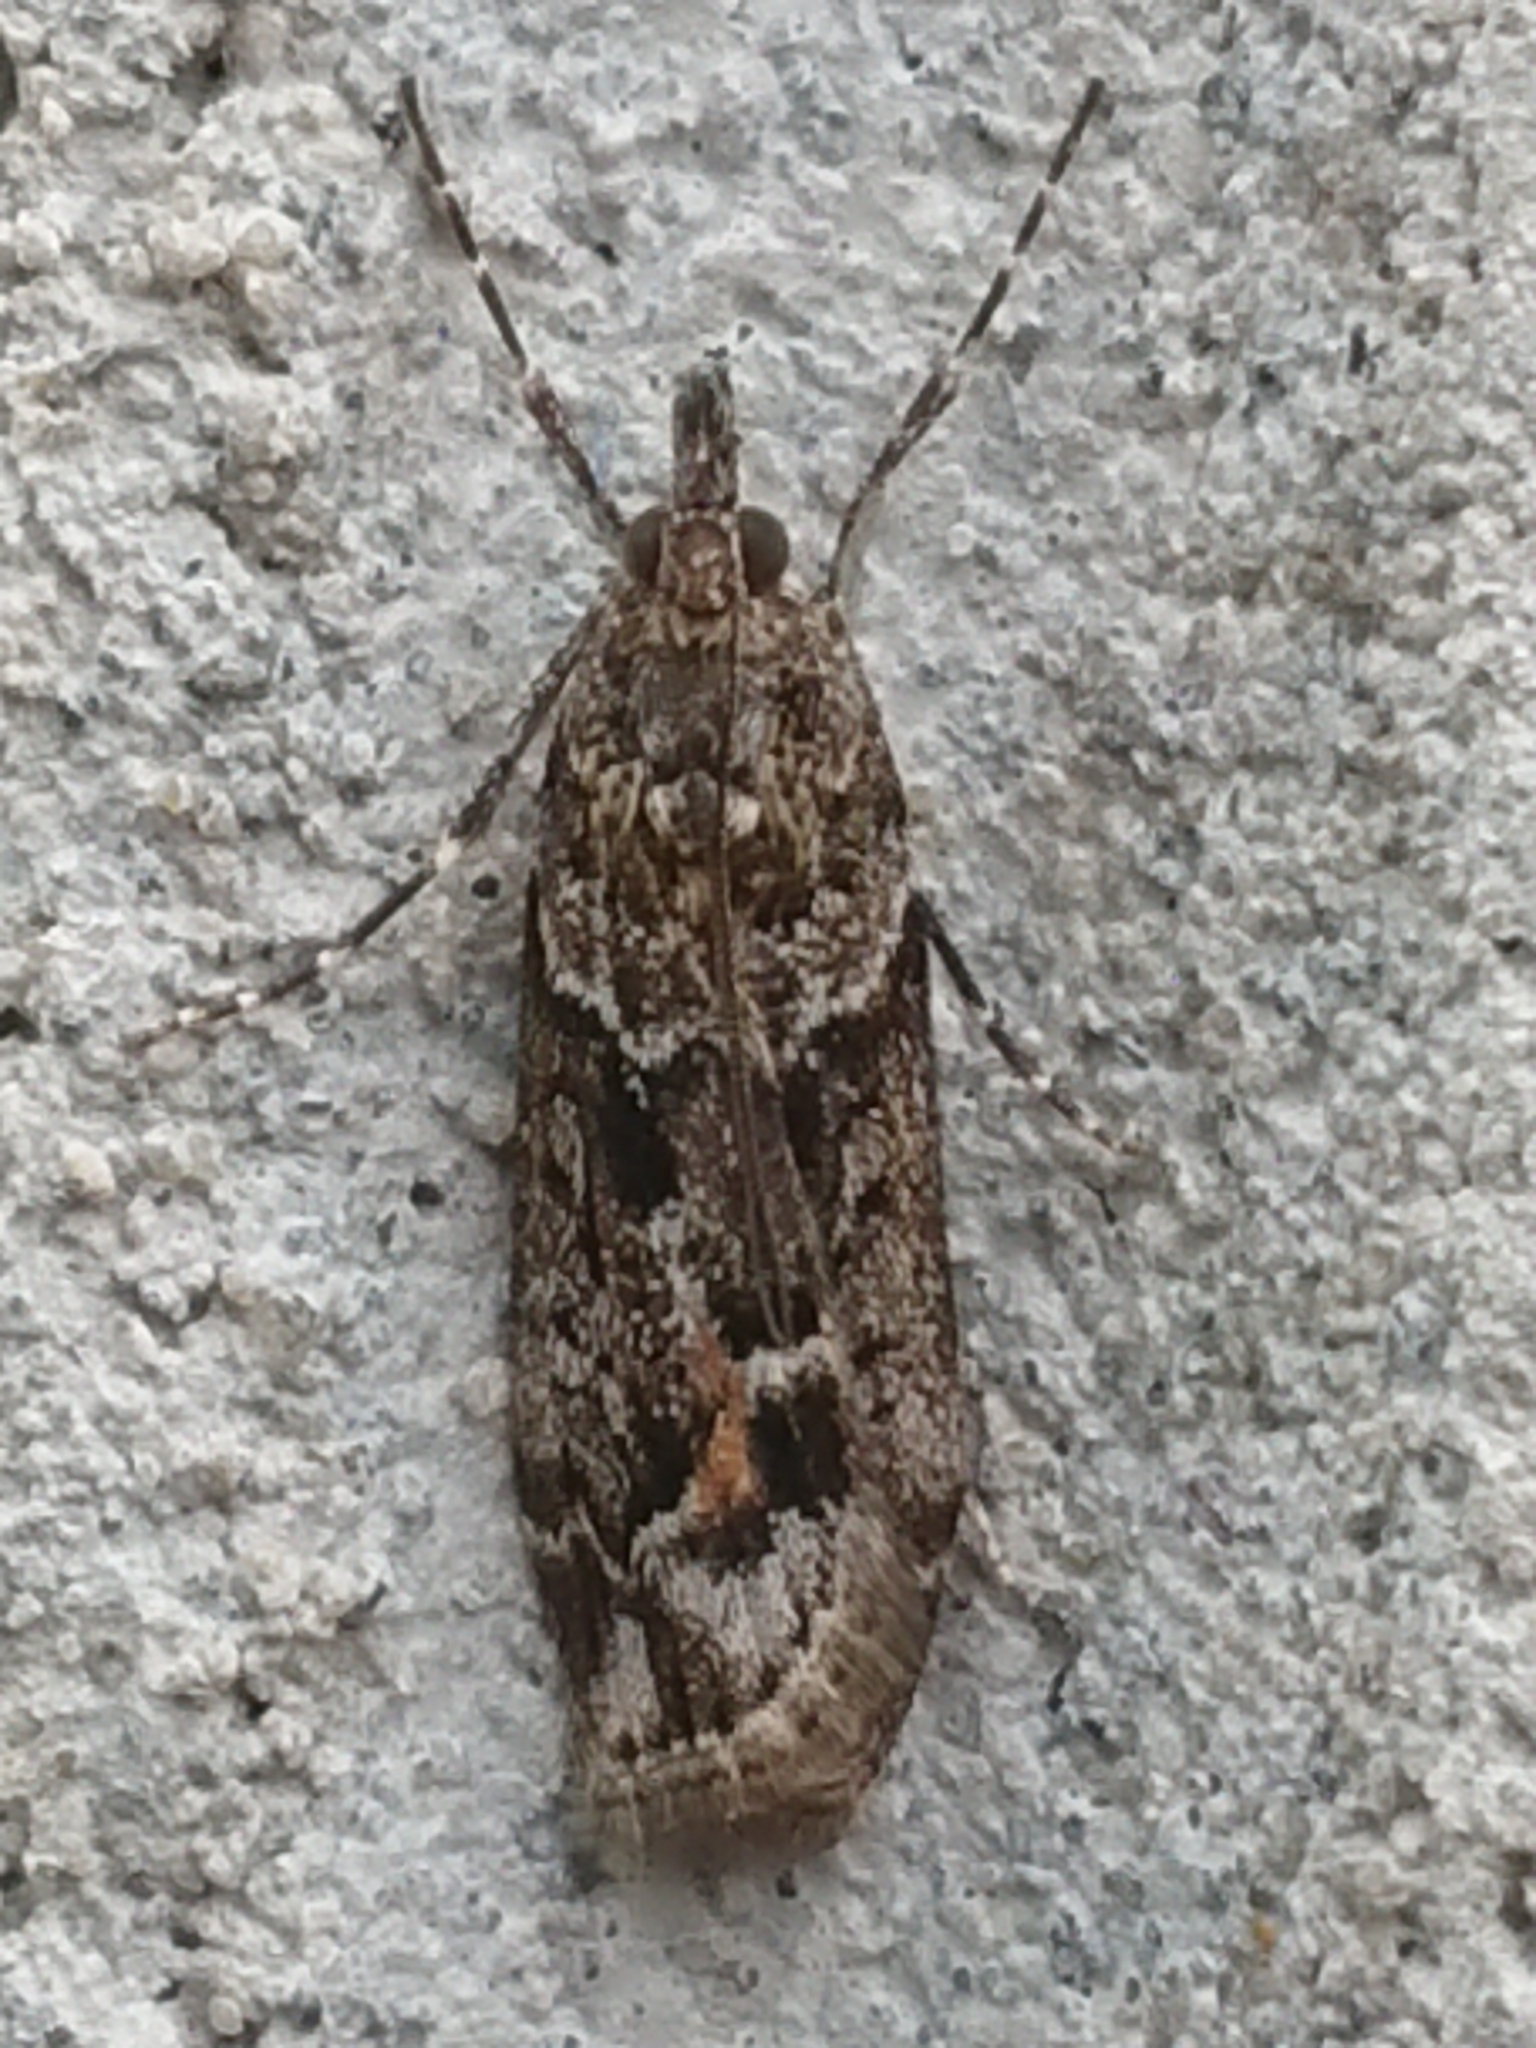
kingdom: Animalia
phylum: Arthropoda
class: Insecta
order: Lepidoptera
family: Crambidae
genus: Eudonia
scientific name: Eudonia submarginalis
